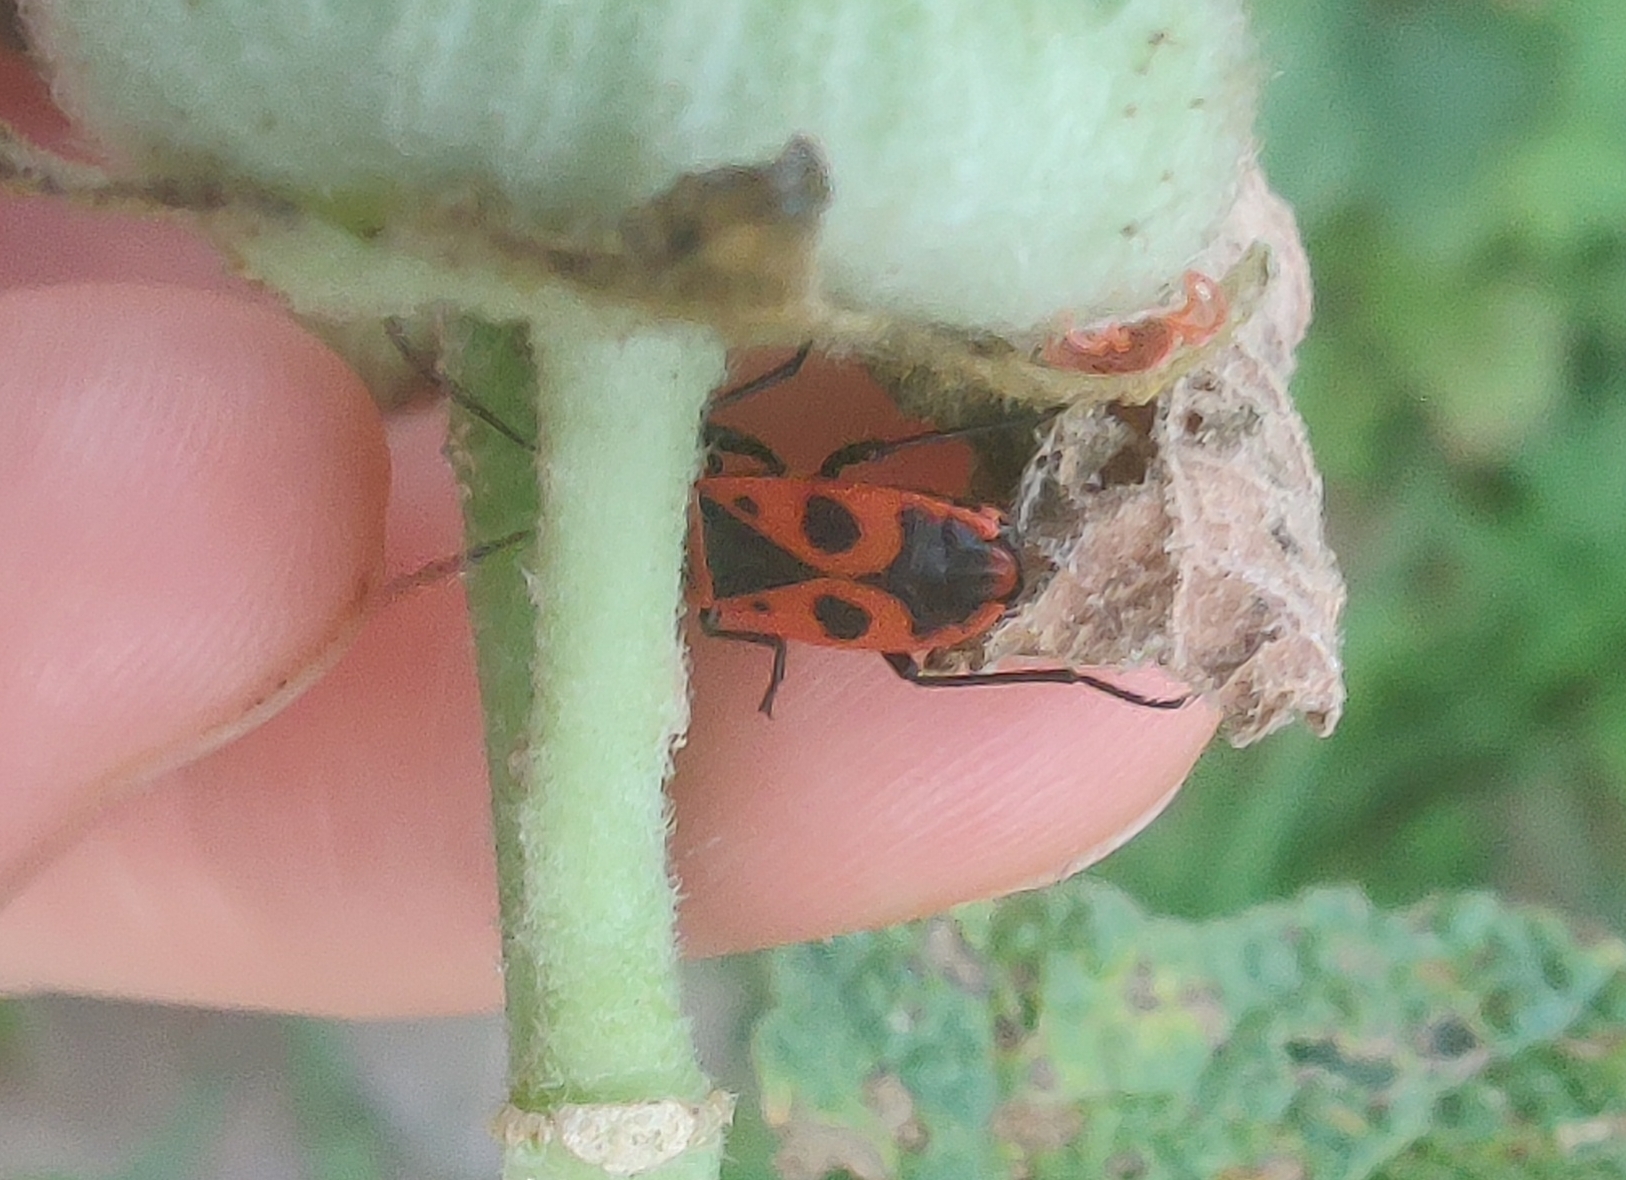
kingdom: Animalia
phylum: Arthropoda
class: Insecta
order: Hemiptera
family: Pyrrhocoridae
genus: Pyrrhocoris
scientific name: Pyrrhocoris apterus
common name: Firebug
